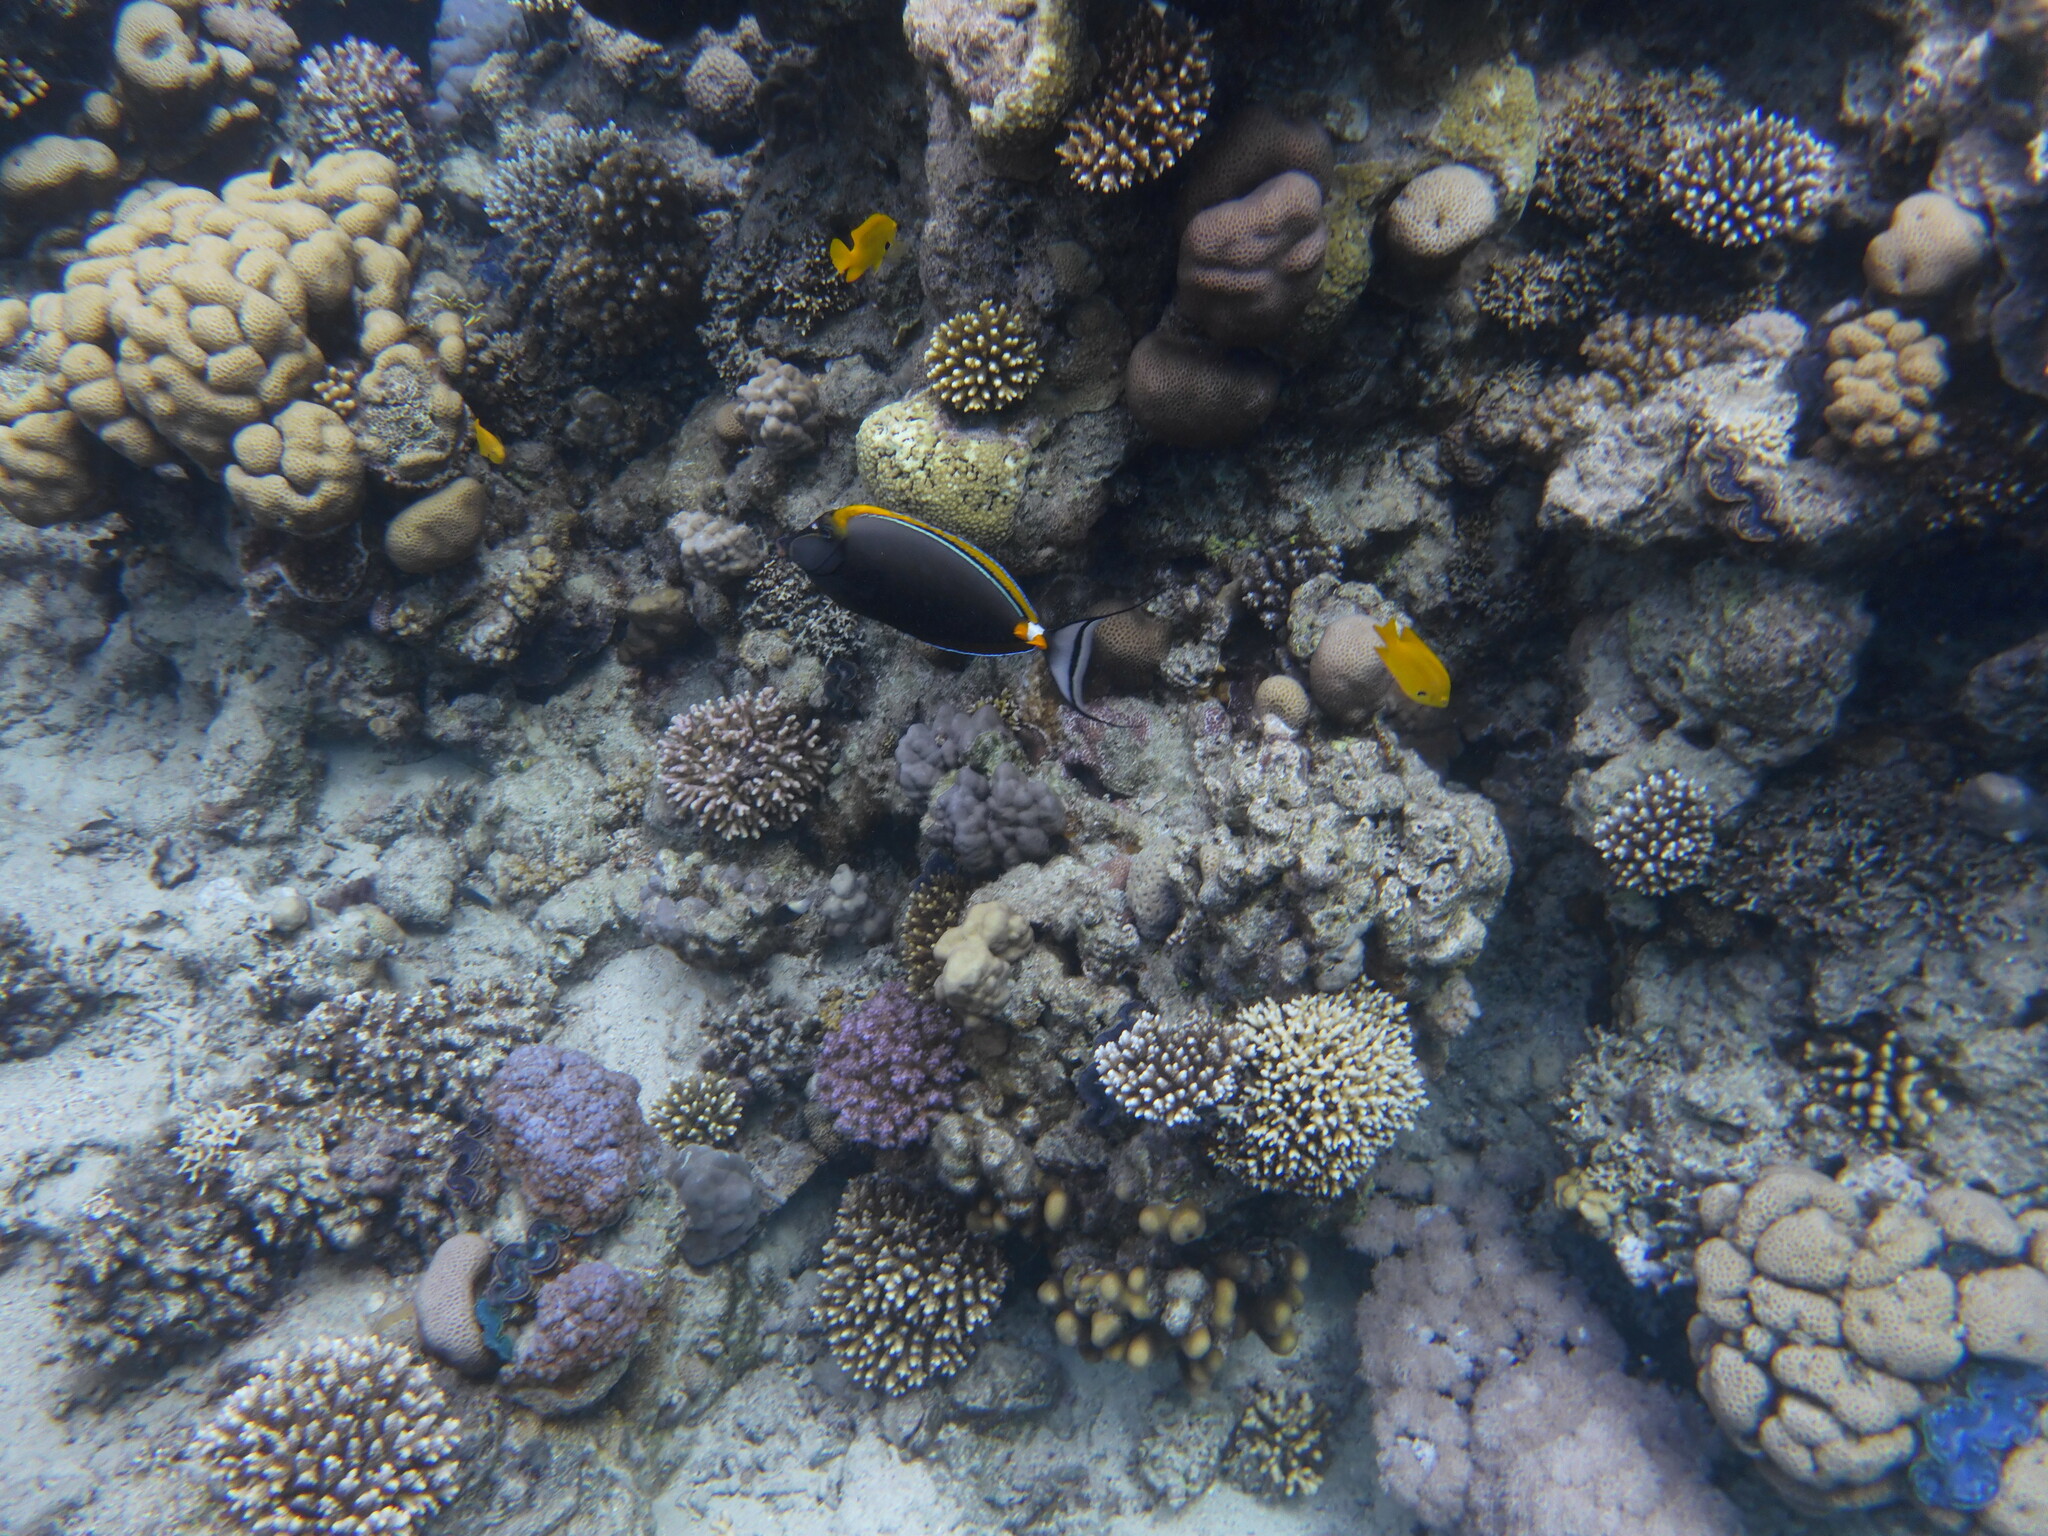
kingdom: Animalia
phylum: Chordata
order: Perciformes
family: Acanthuridae
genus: Naso
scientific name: Naso elegans
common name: Orangespine unicornfish
